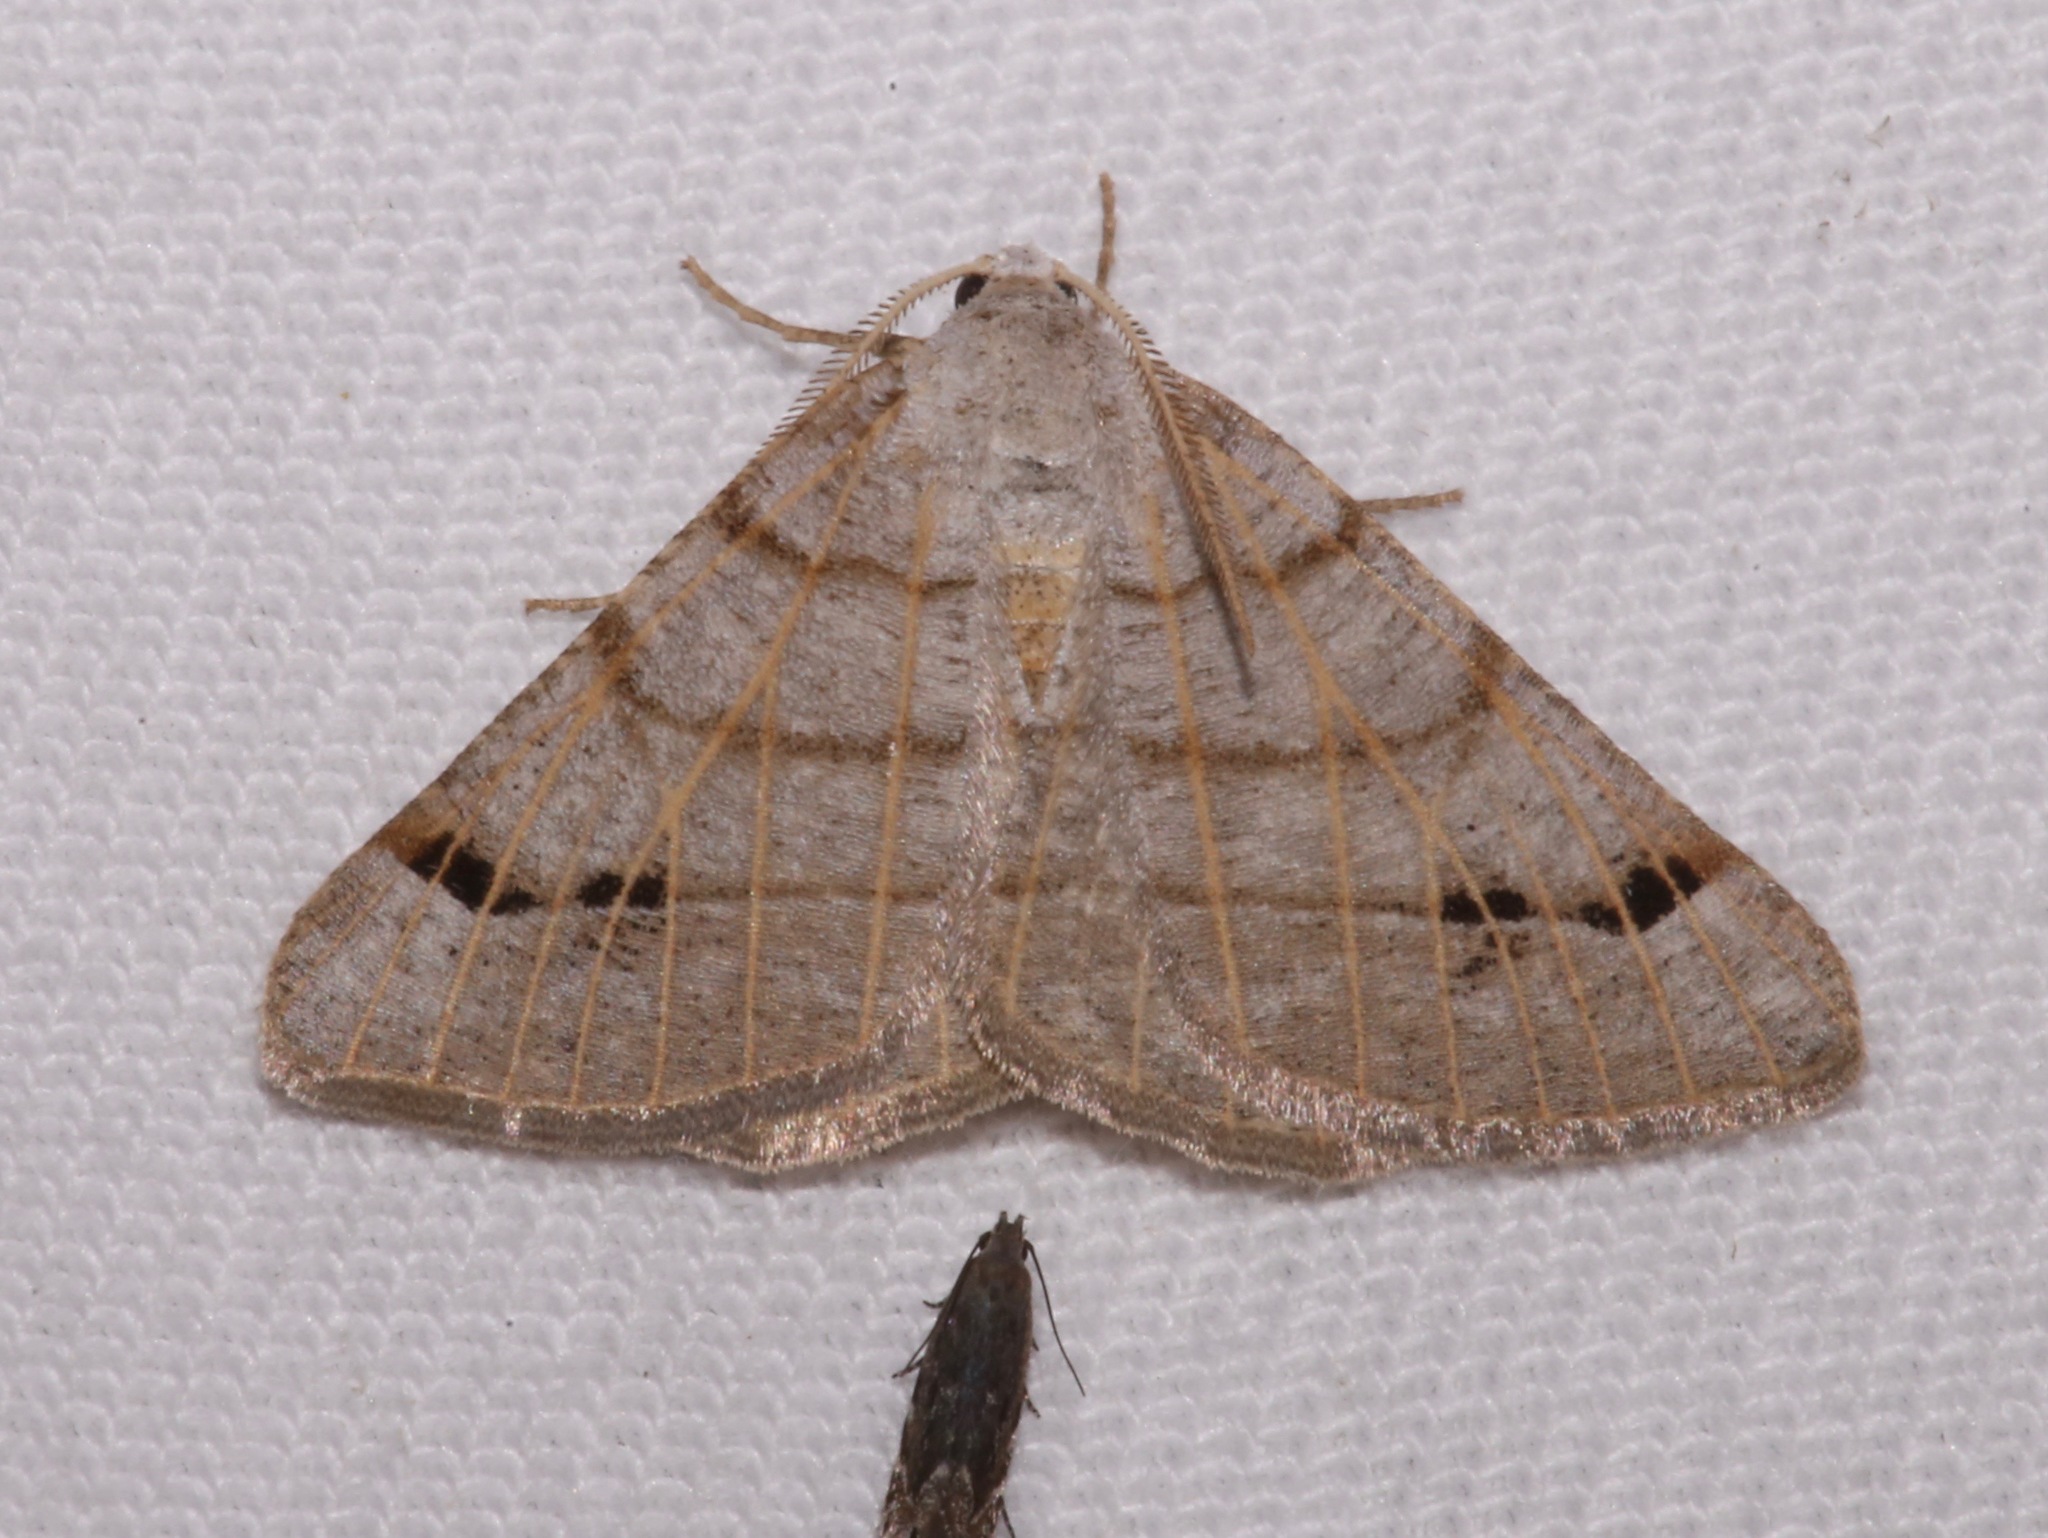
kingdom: Animalia
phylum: Arthropoda
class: Insecta
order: Lepidoptera
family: Geometridae
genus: Isturgia
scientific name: Isturgia dislocaria
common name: Pale-viened enconista
